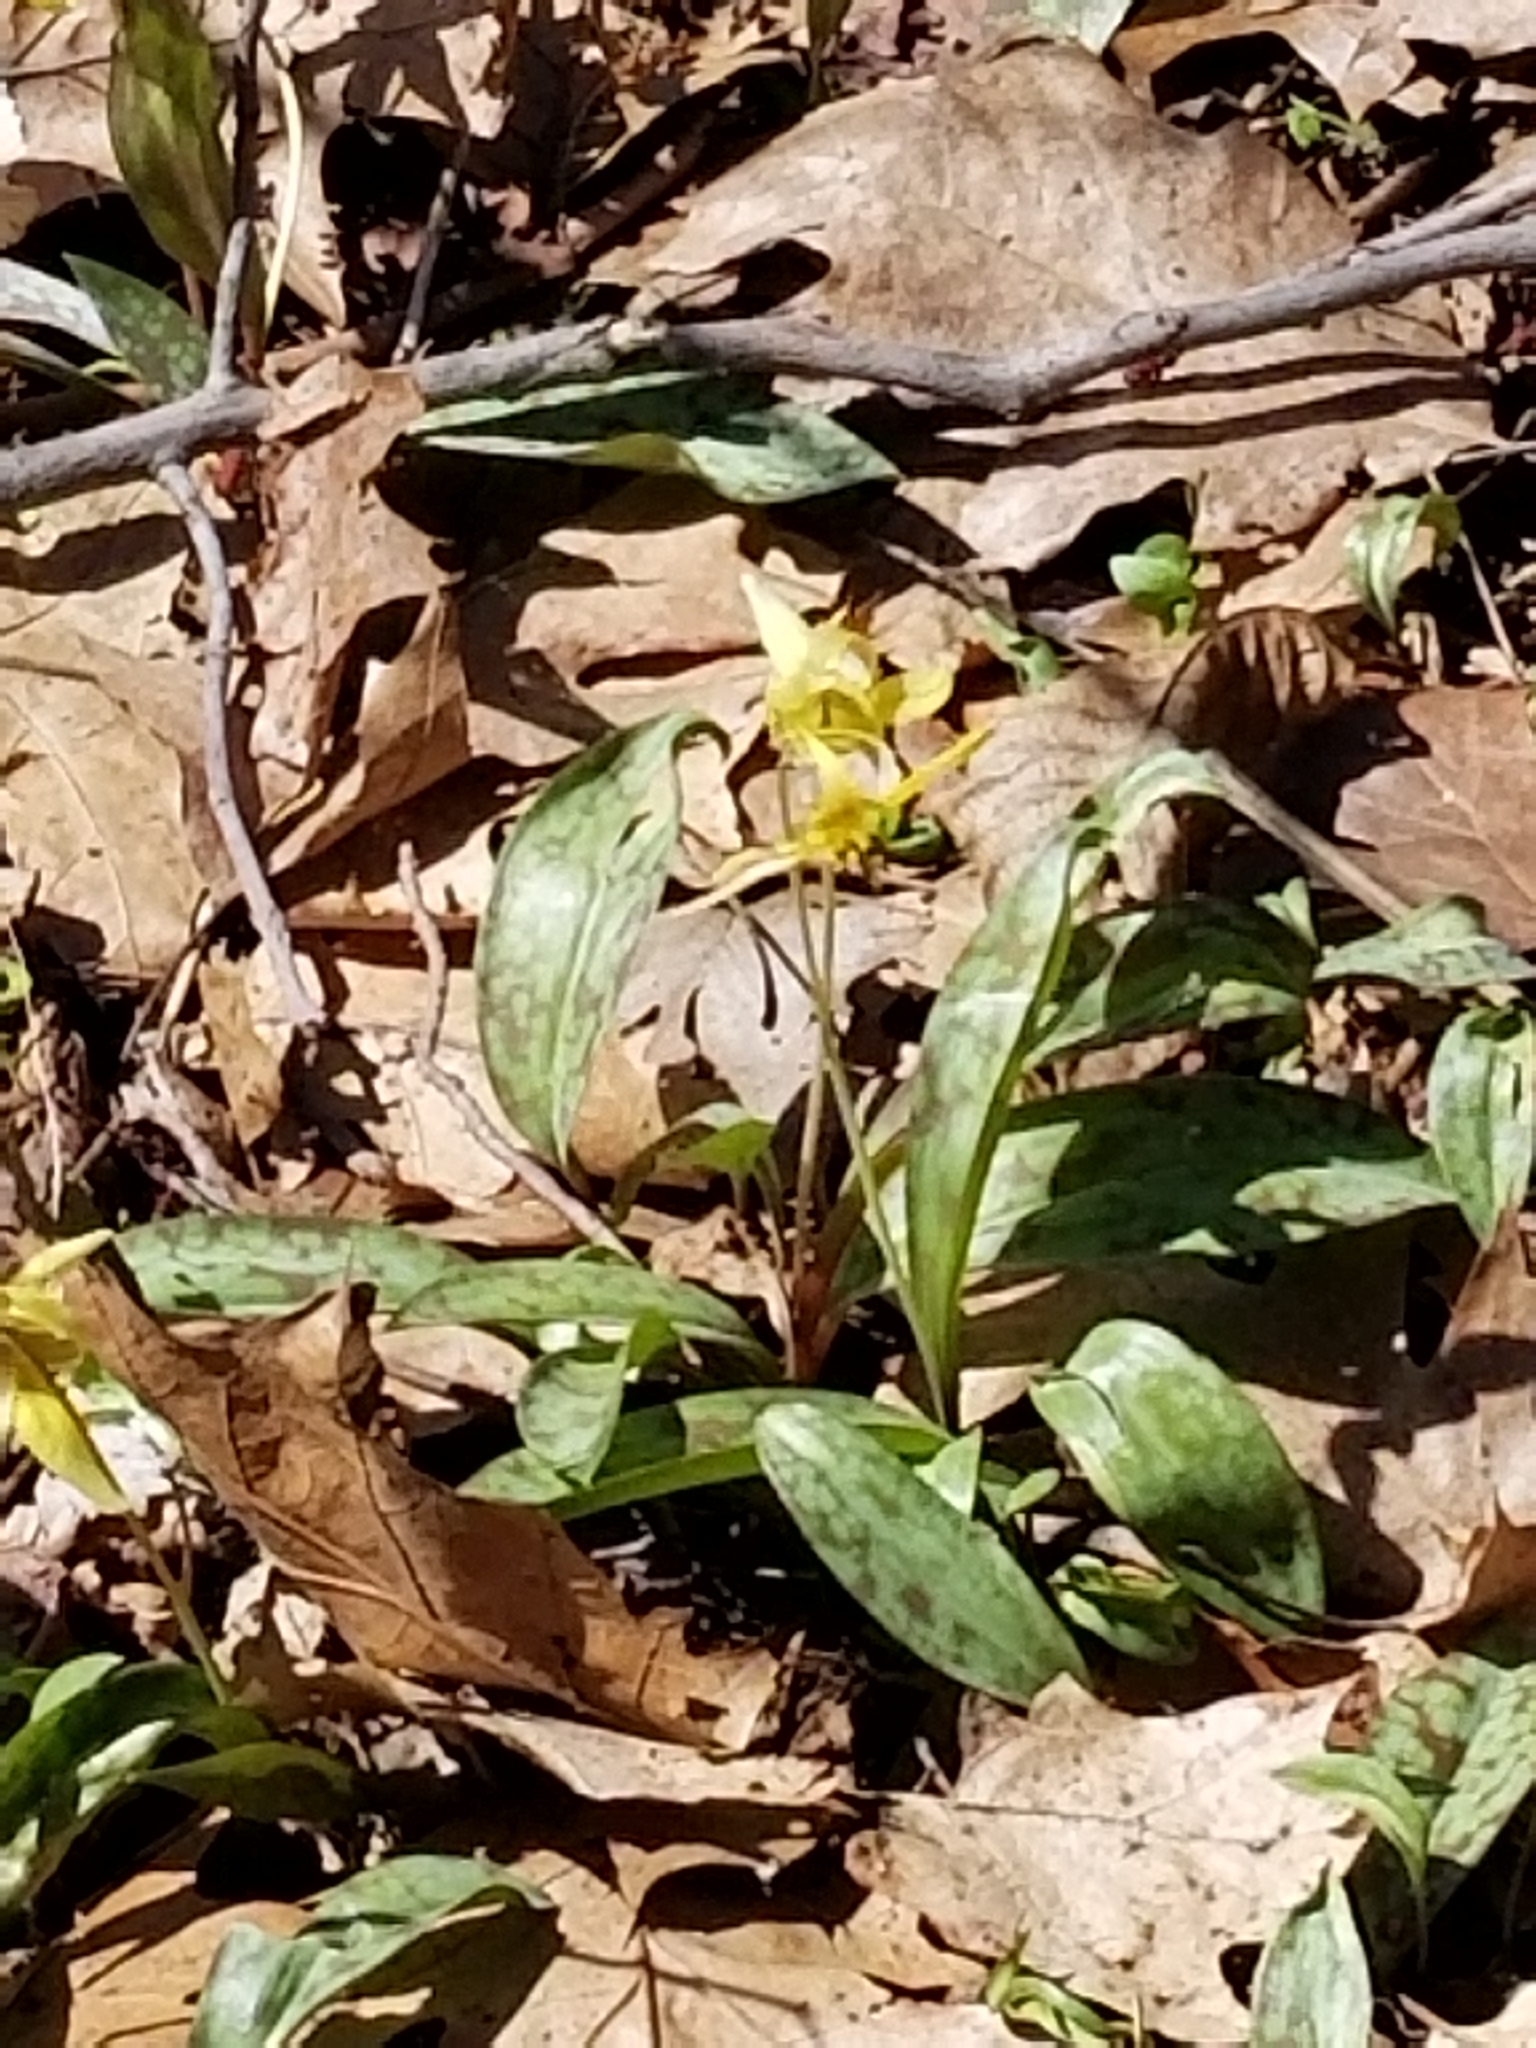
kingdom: Plantae
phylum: Tracheophyta
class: Liliopsida
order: Liliales
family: Liliaceae
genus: Erythronium
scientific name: Erythronium americanum
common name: Yellow adder's-tongue
